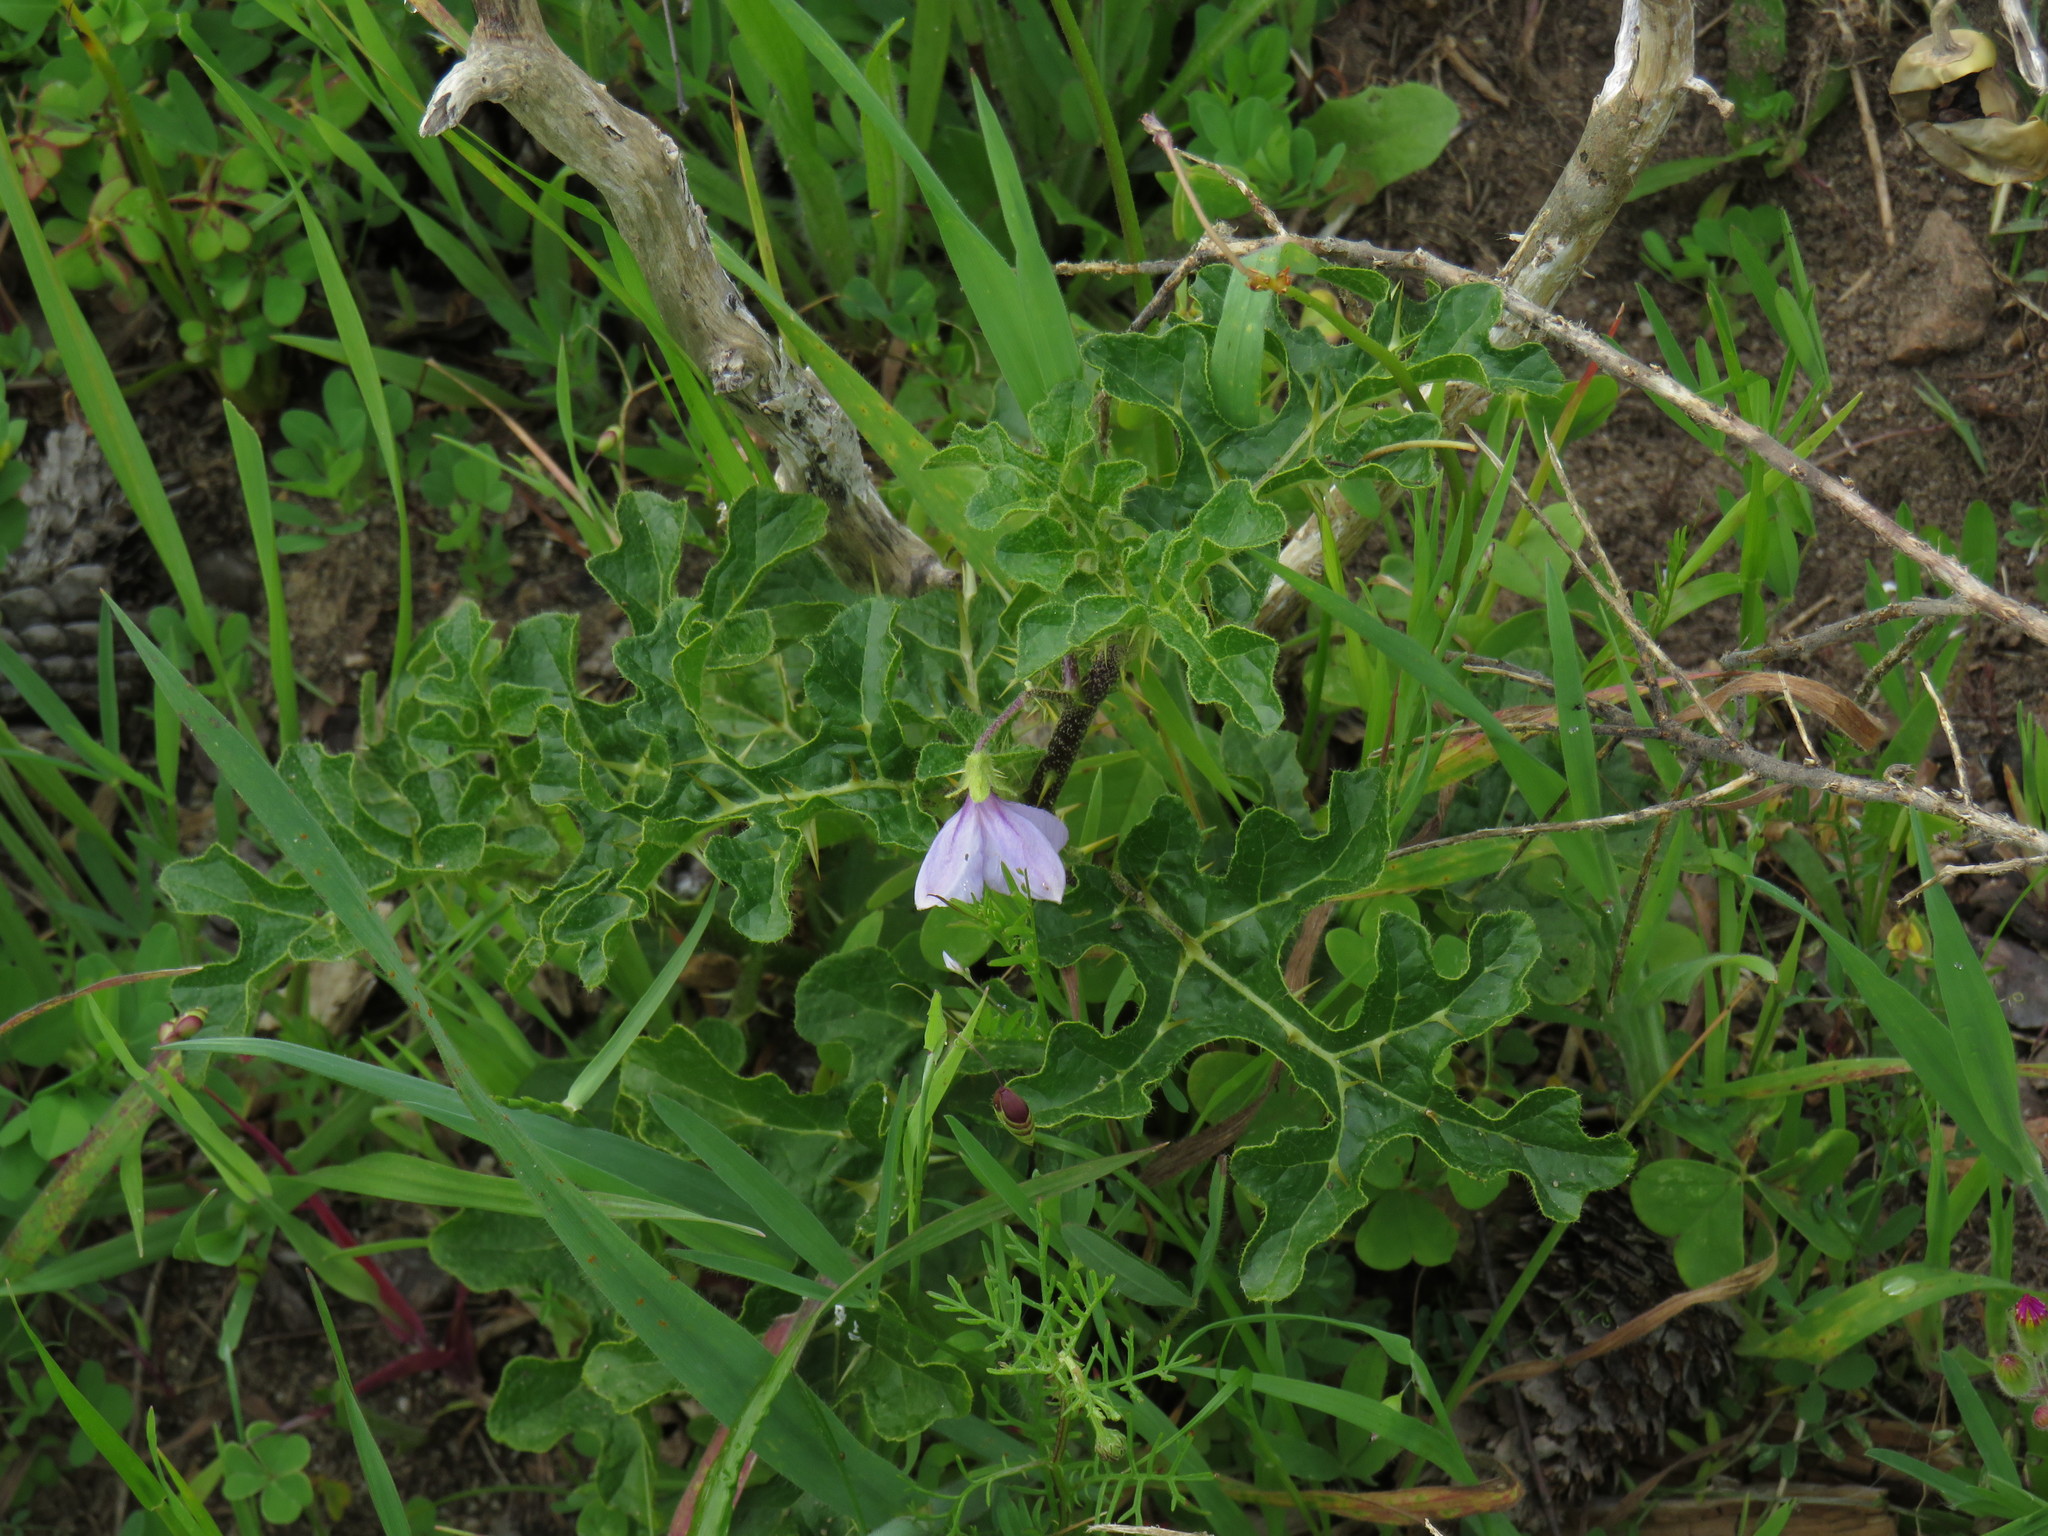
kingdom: Plantae
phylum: Tracheophyta
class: Magnoliopsida
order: Solanales
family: Solanaceae
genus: Solanum
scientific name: Solanum linnaeanum
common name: Nightshade
